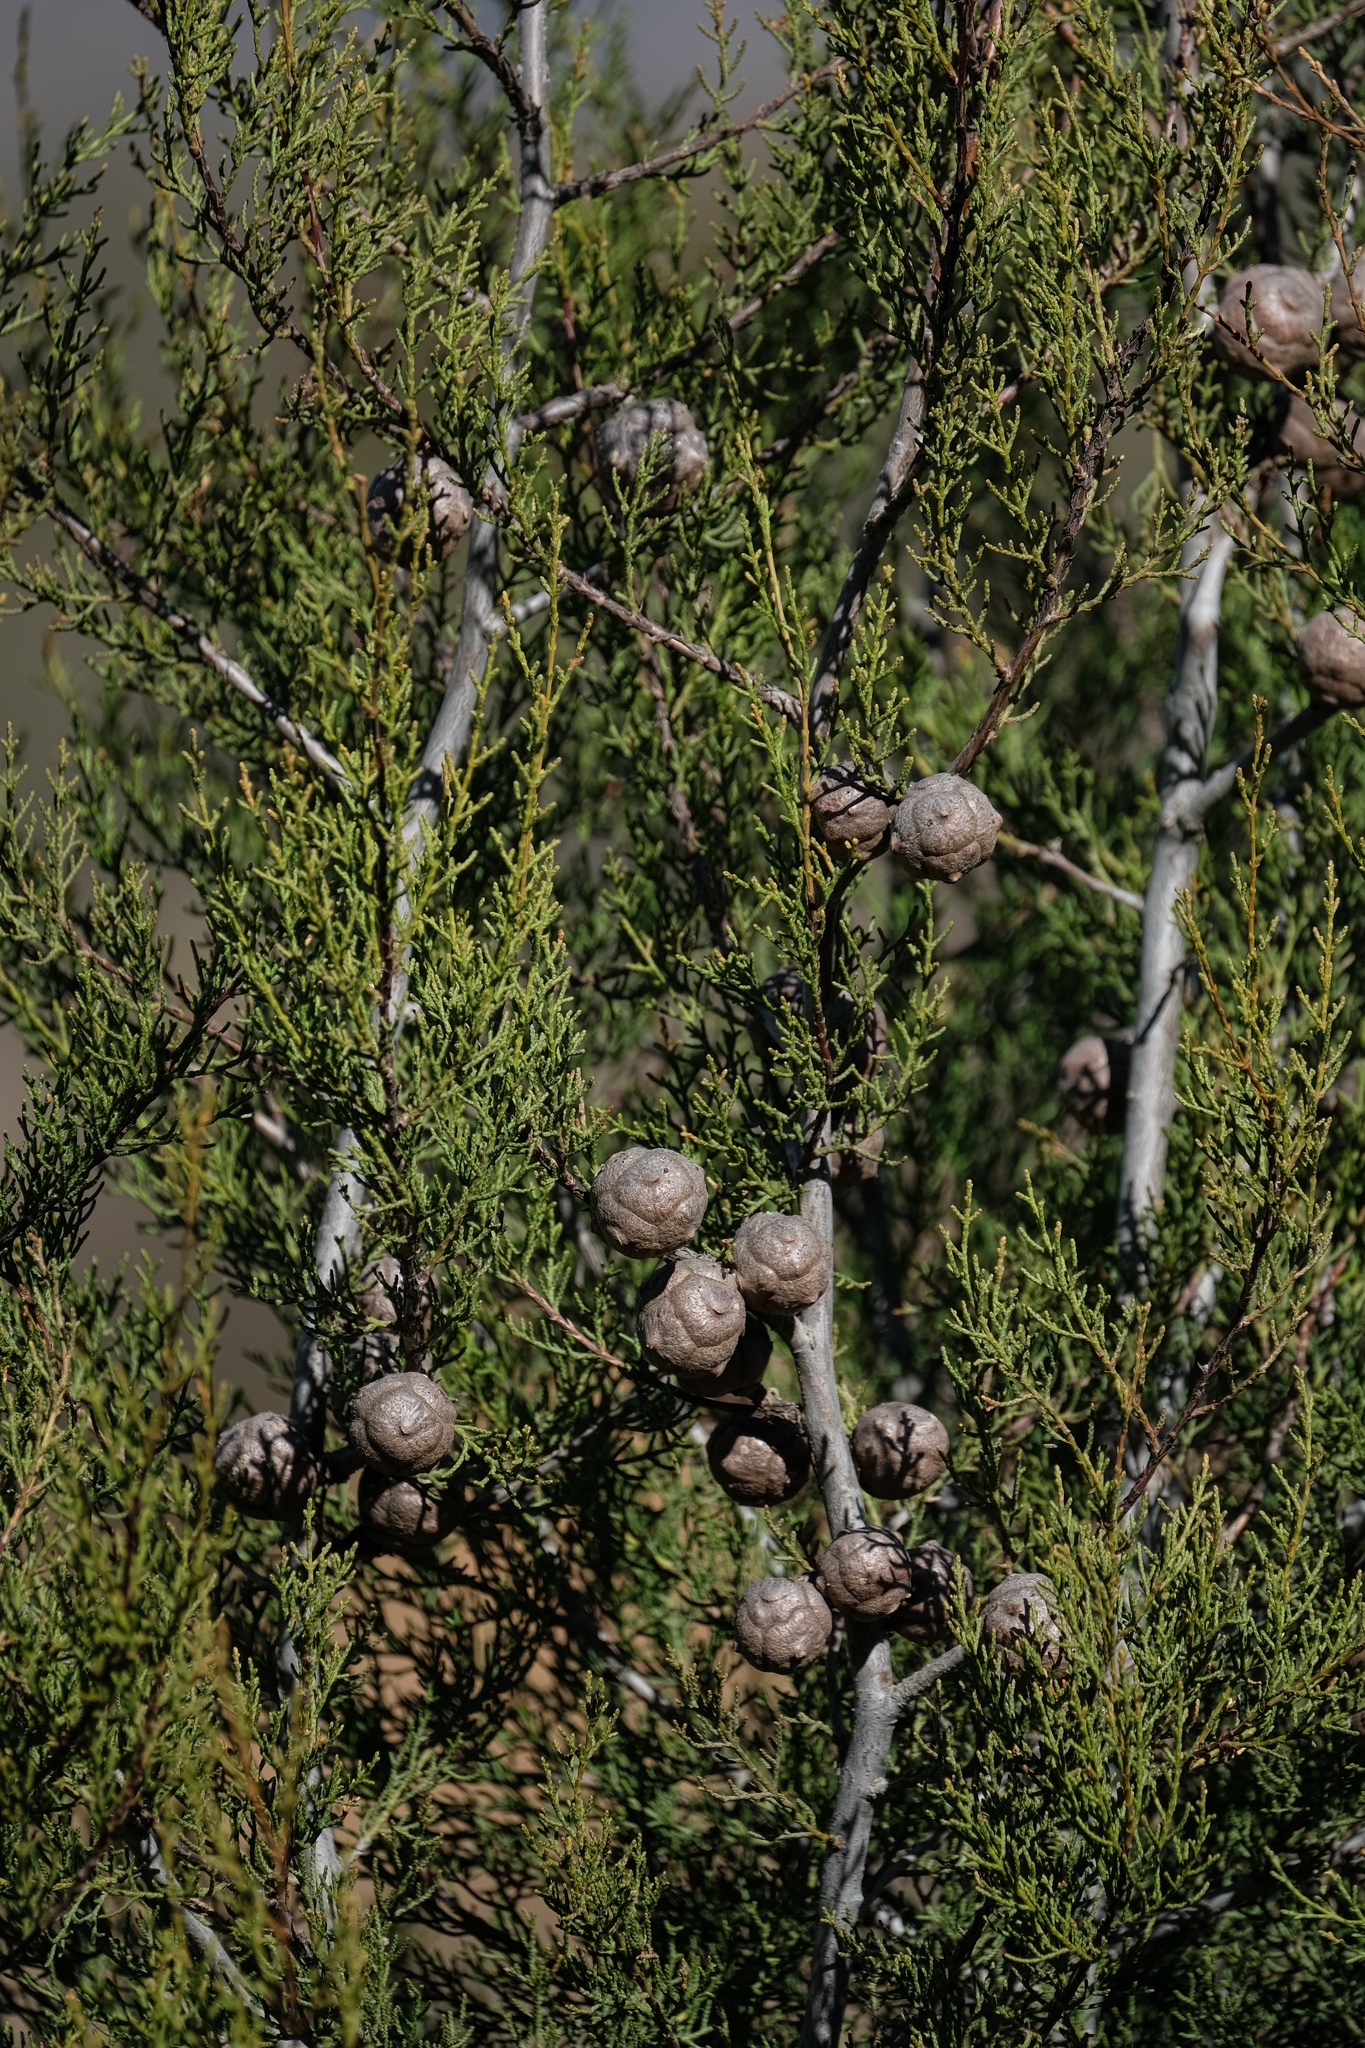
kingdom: Plantae
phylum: Tracheophyta
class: Pinopsida
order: Pinales
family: Cupressaceae
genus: Cupressus
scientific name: Cupressus guadalupensis
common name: Forbes cypress
